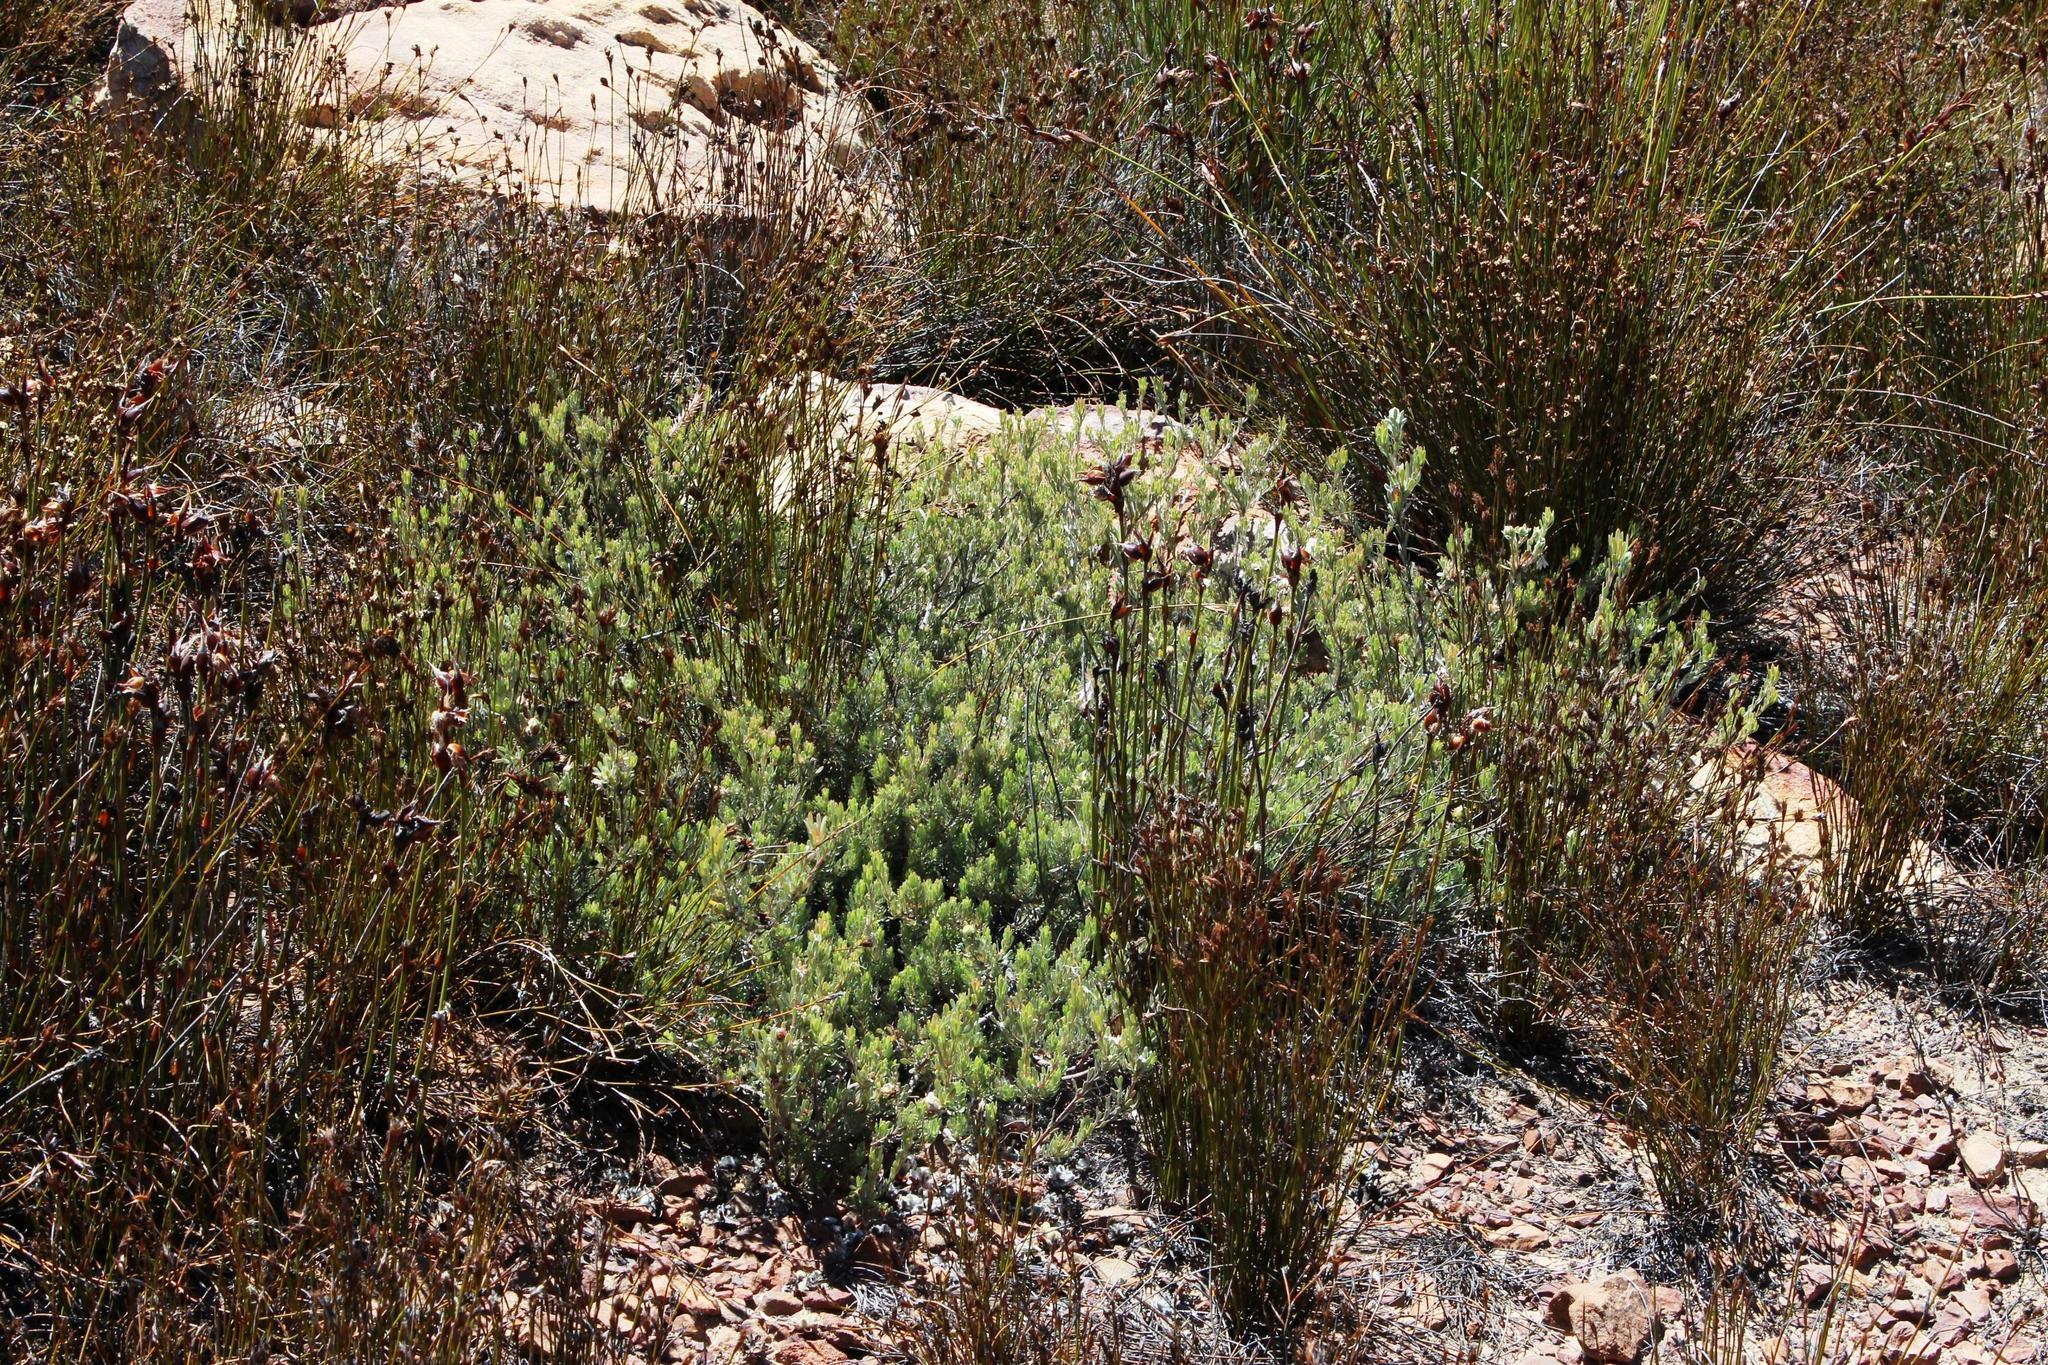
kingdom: Plantae
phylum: Tracheophyta
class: Magnoliopsida
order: Proteales
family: Proteaceae
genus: Leucadendron
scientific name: Leucadendron nitidum
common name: Bokkeveld conebush
